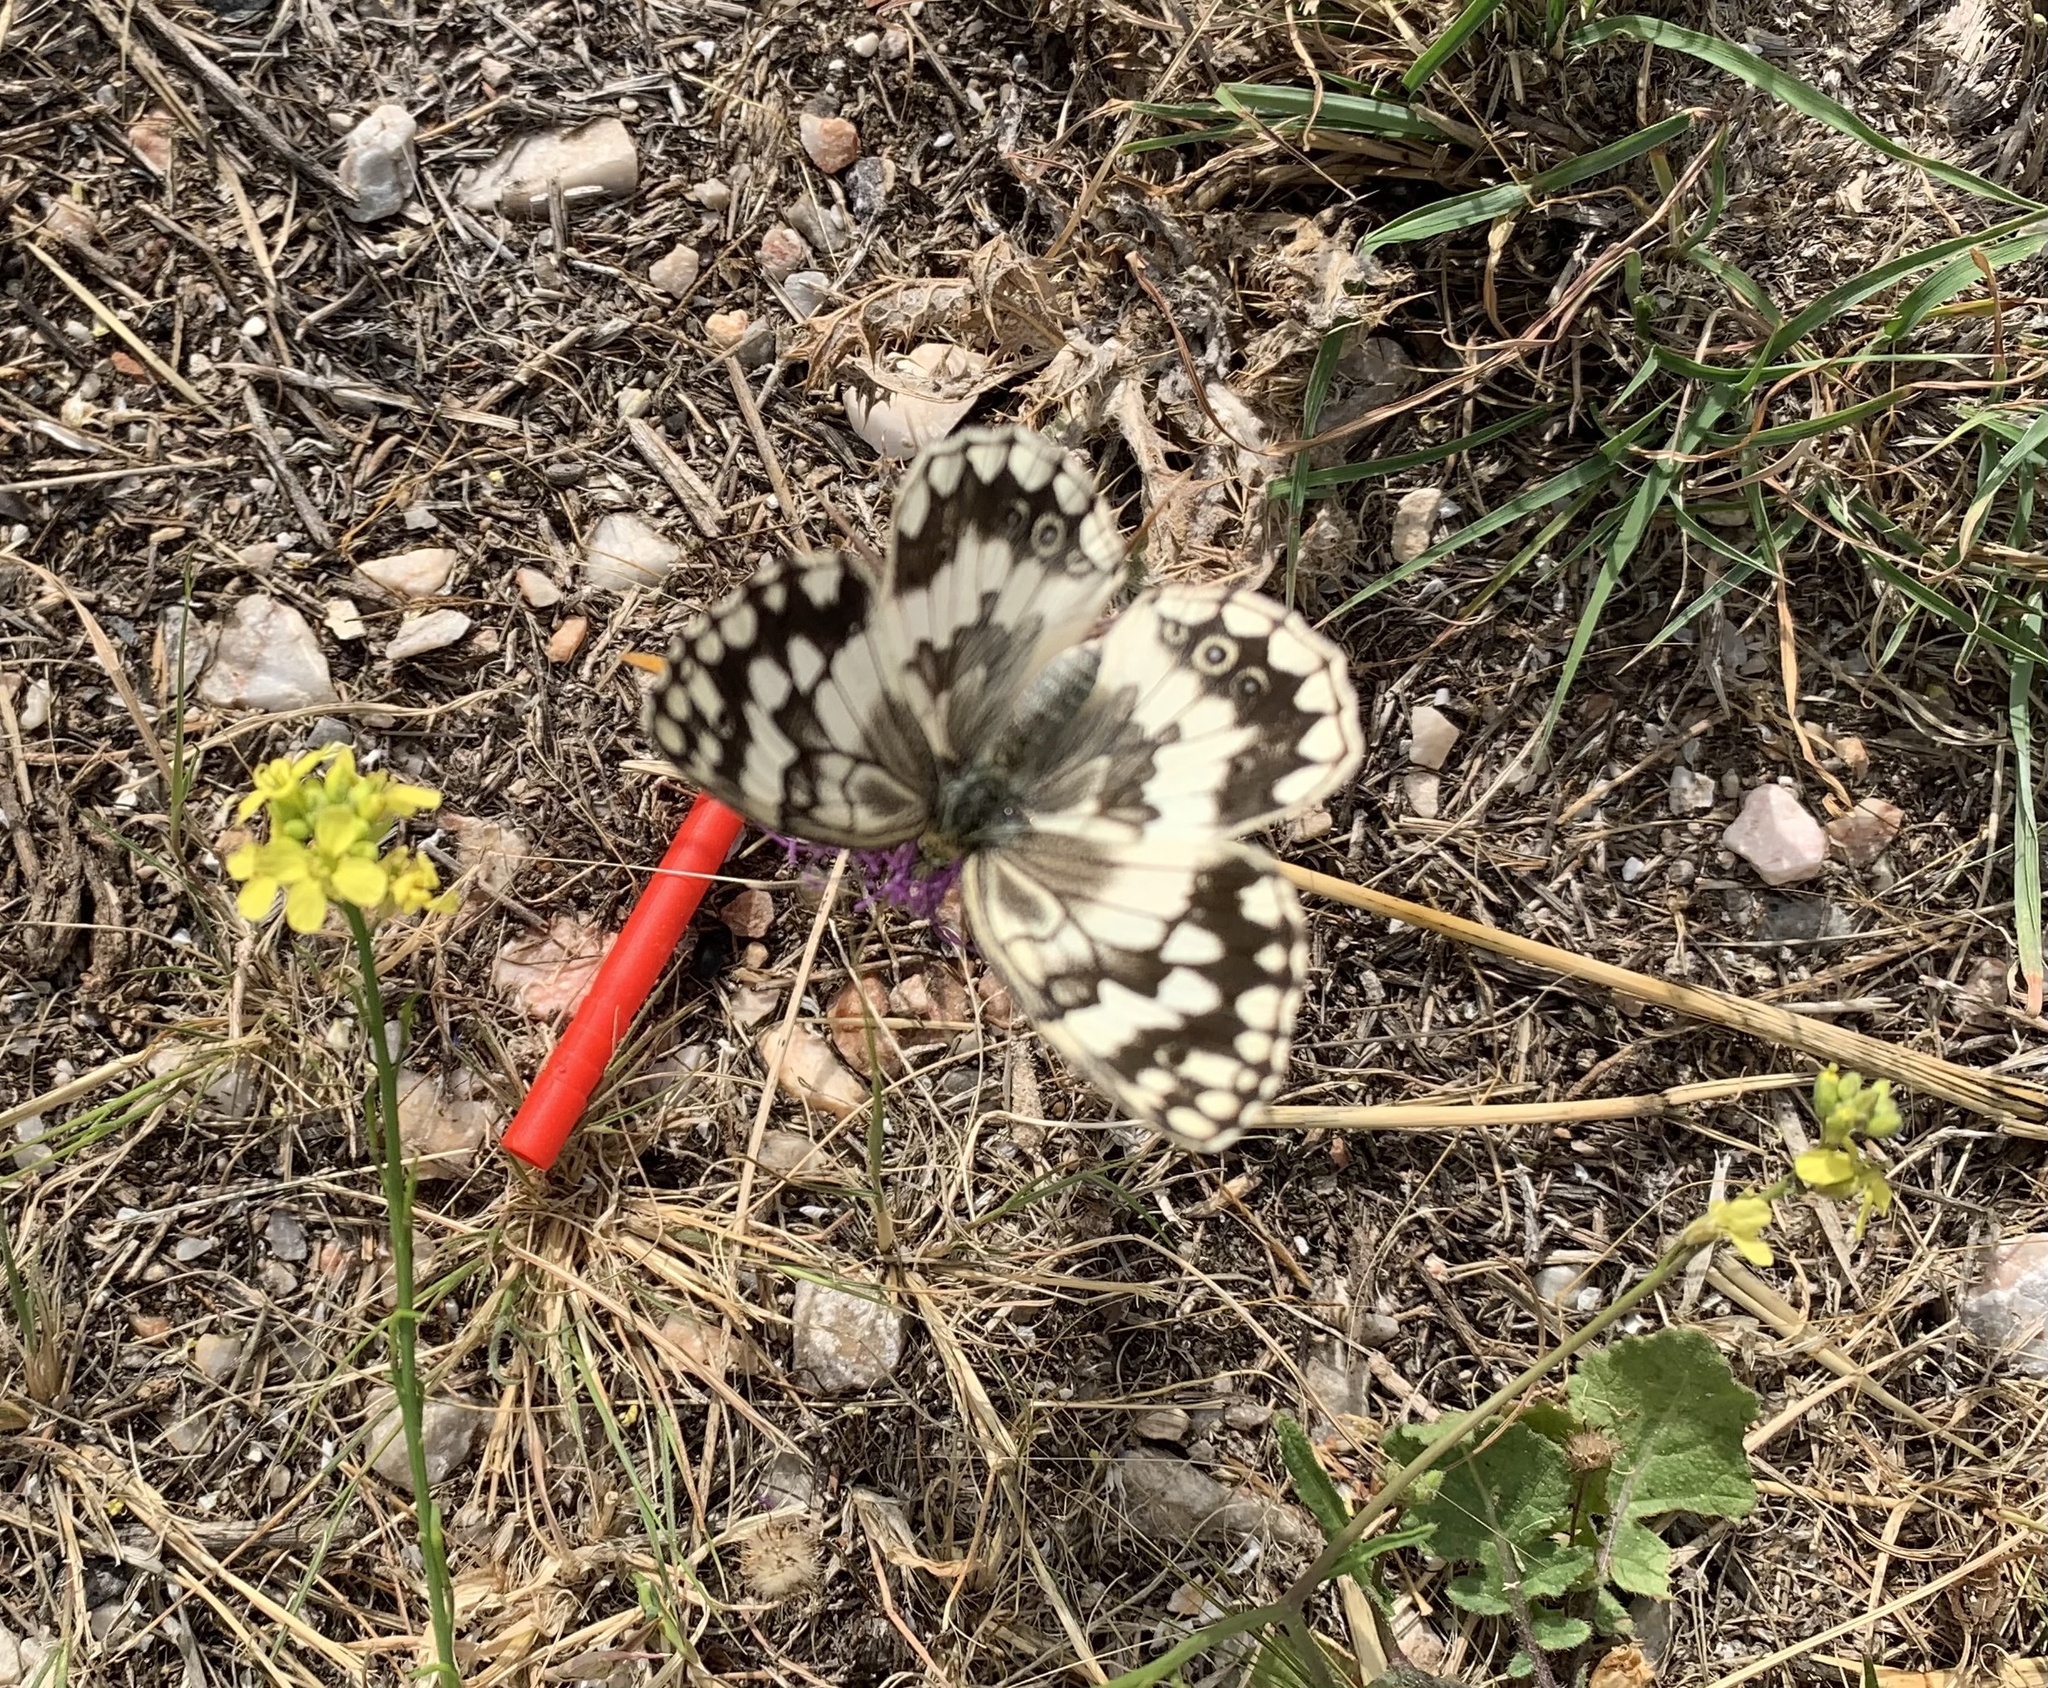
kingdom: Animalia
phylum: Arthropoda
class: Insecta
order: Lepidoptera
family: Nymphalidae
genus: Melanargia
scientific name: Melanargia larissa
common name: Balkan marbled white
